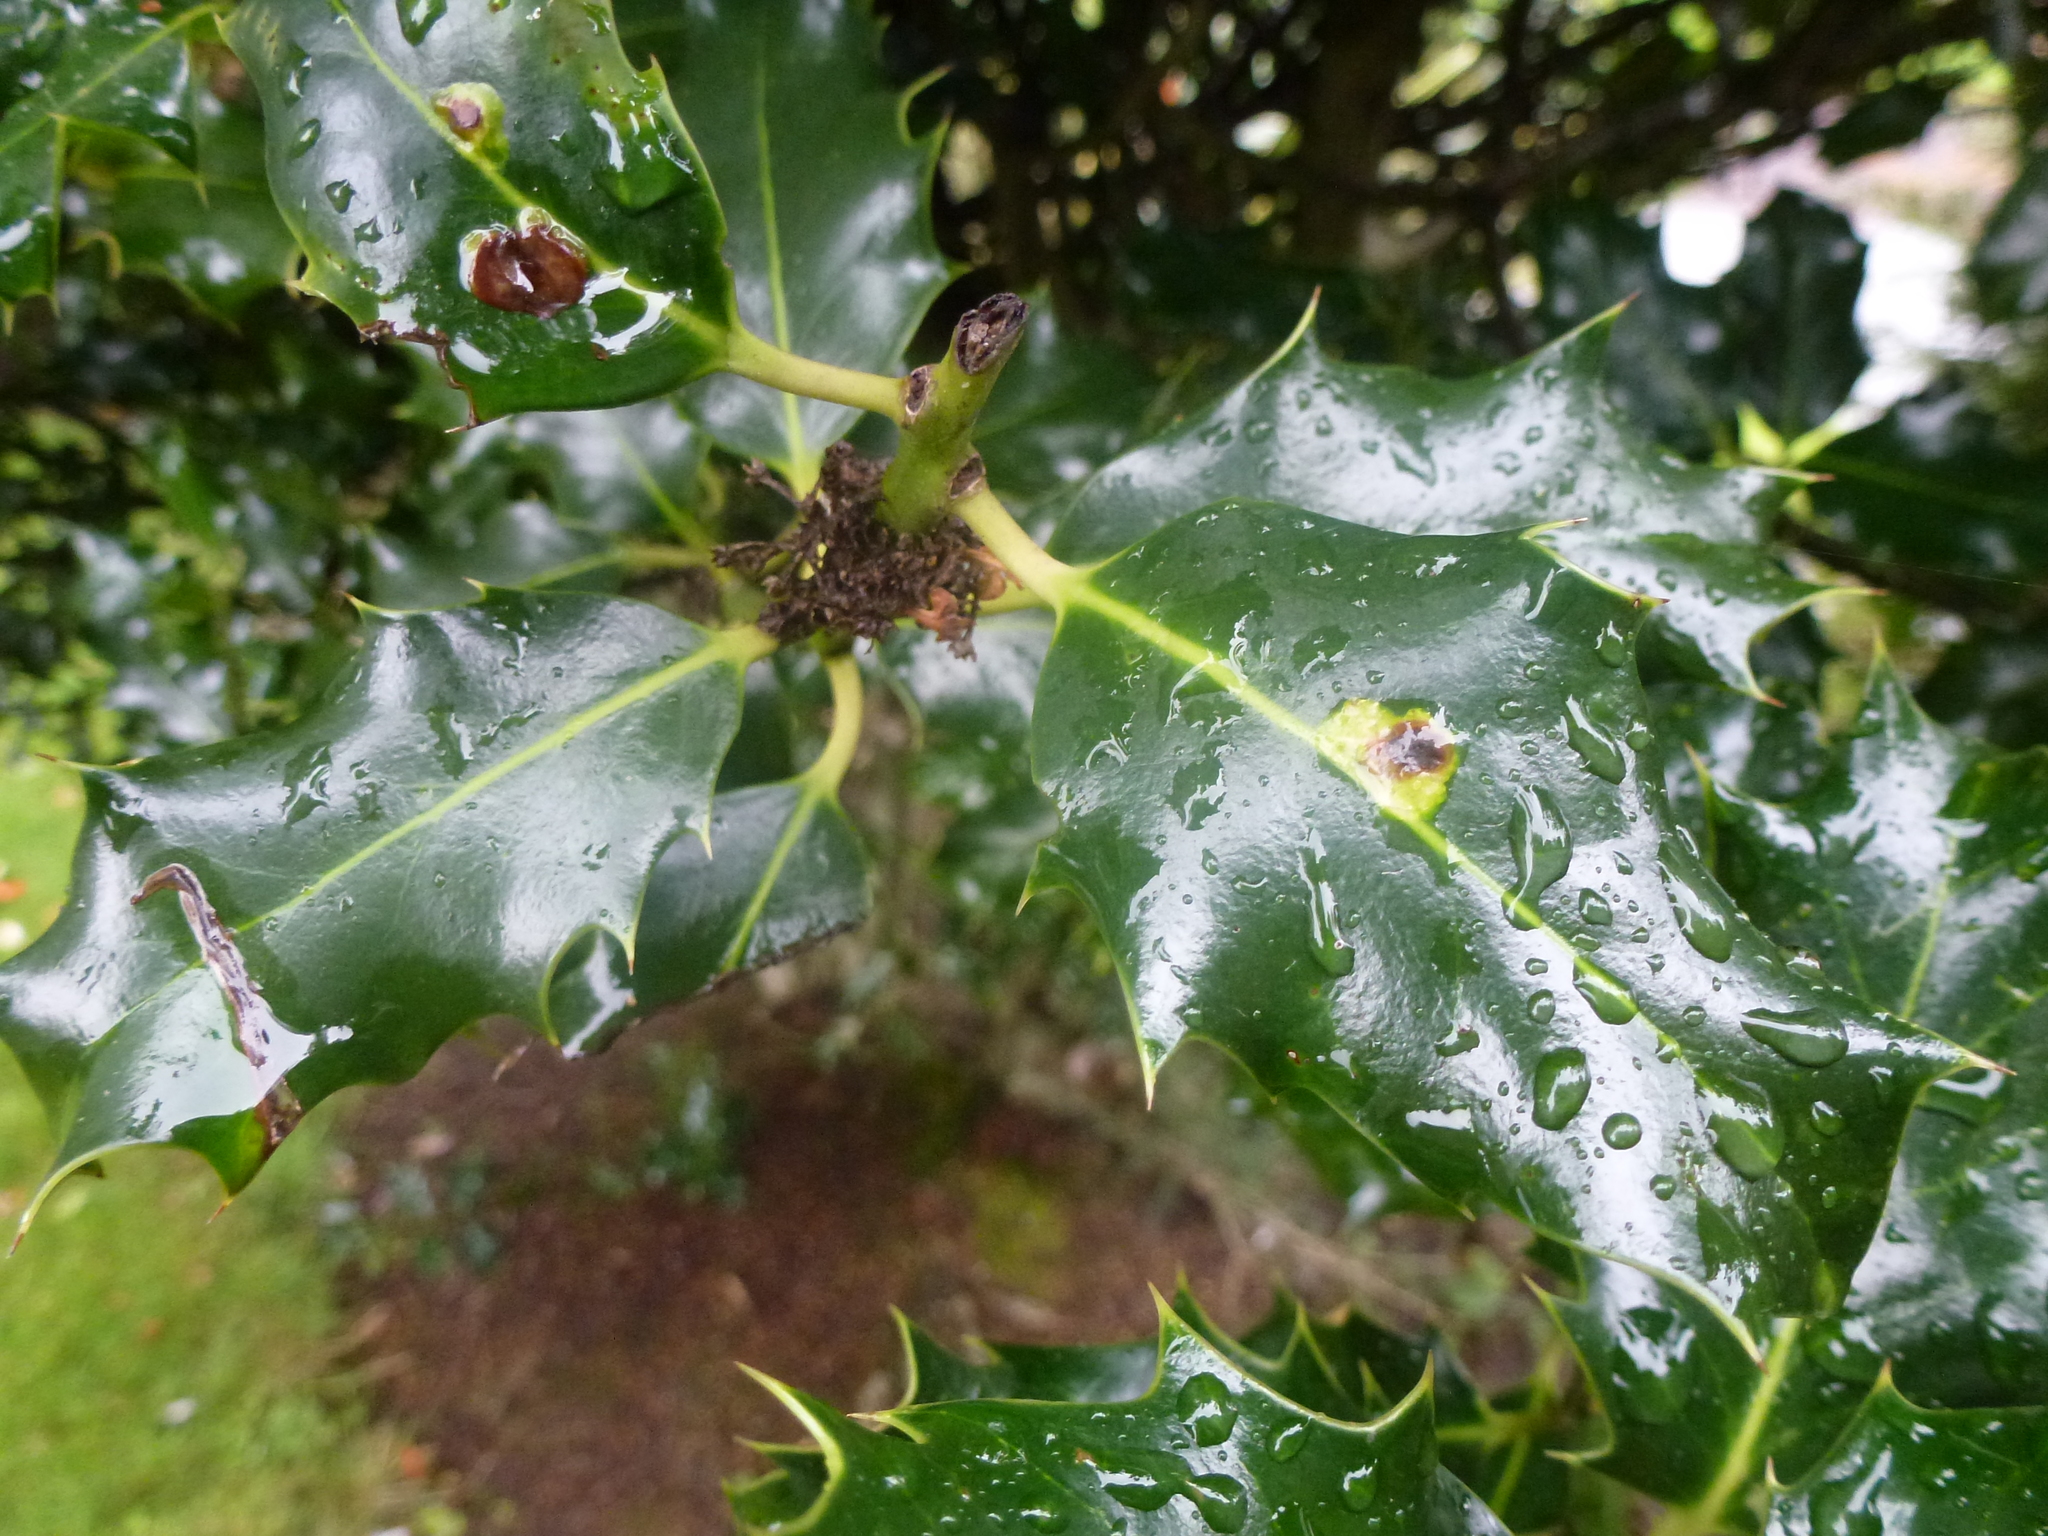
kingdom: Animalia
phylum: Arthropoda
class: Insecta
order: Diptera
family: Agromyzidae
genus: Phytomyza
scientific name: Phytomyza ilicis
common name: Holly leafminer
